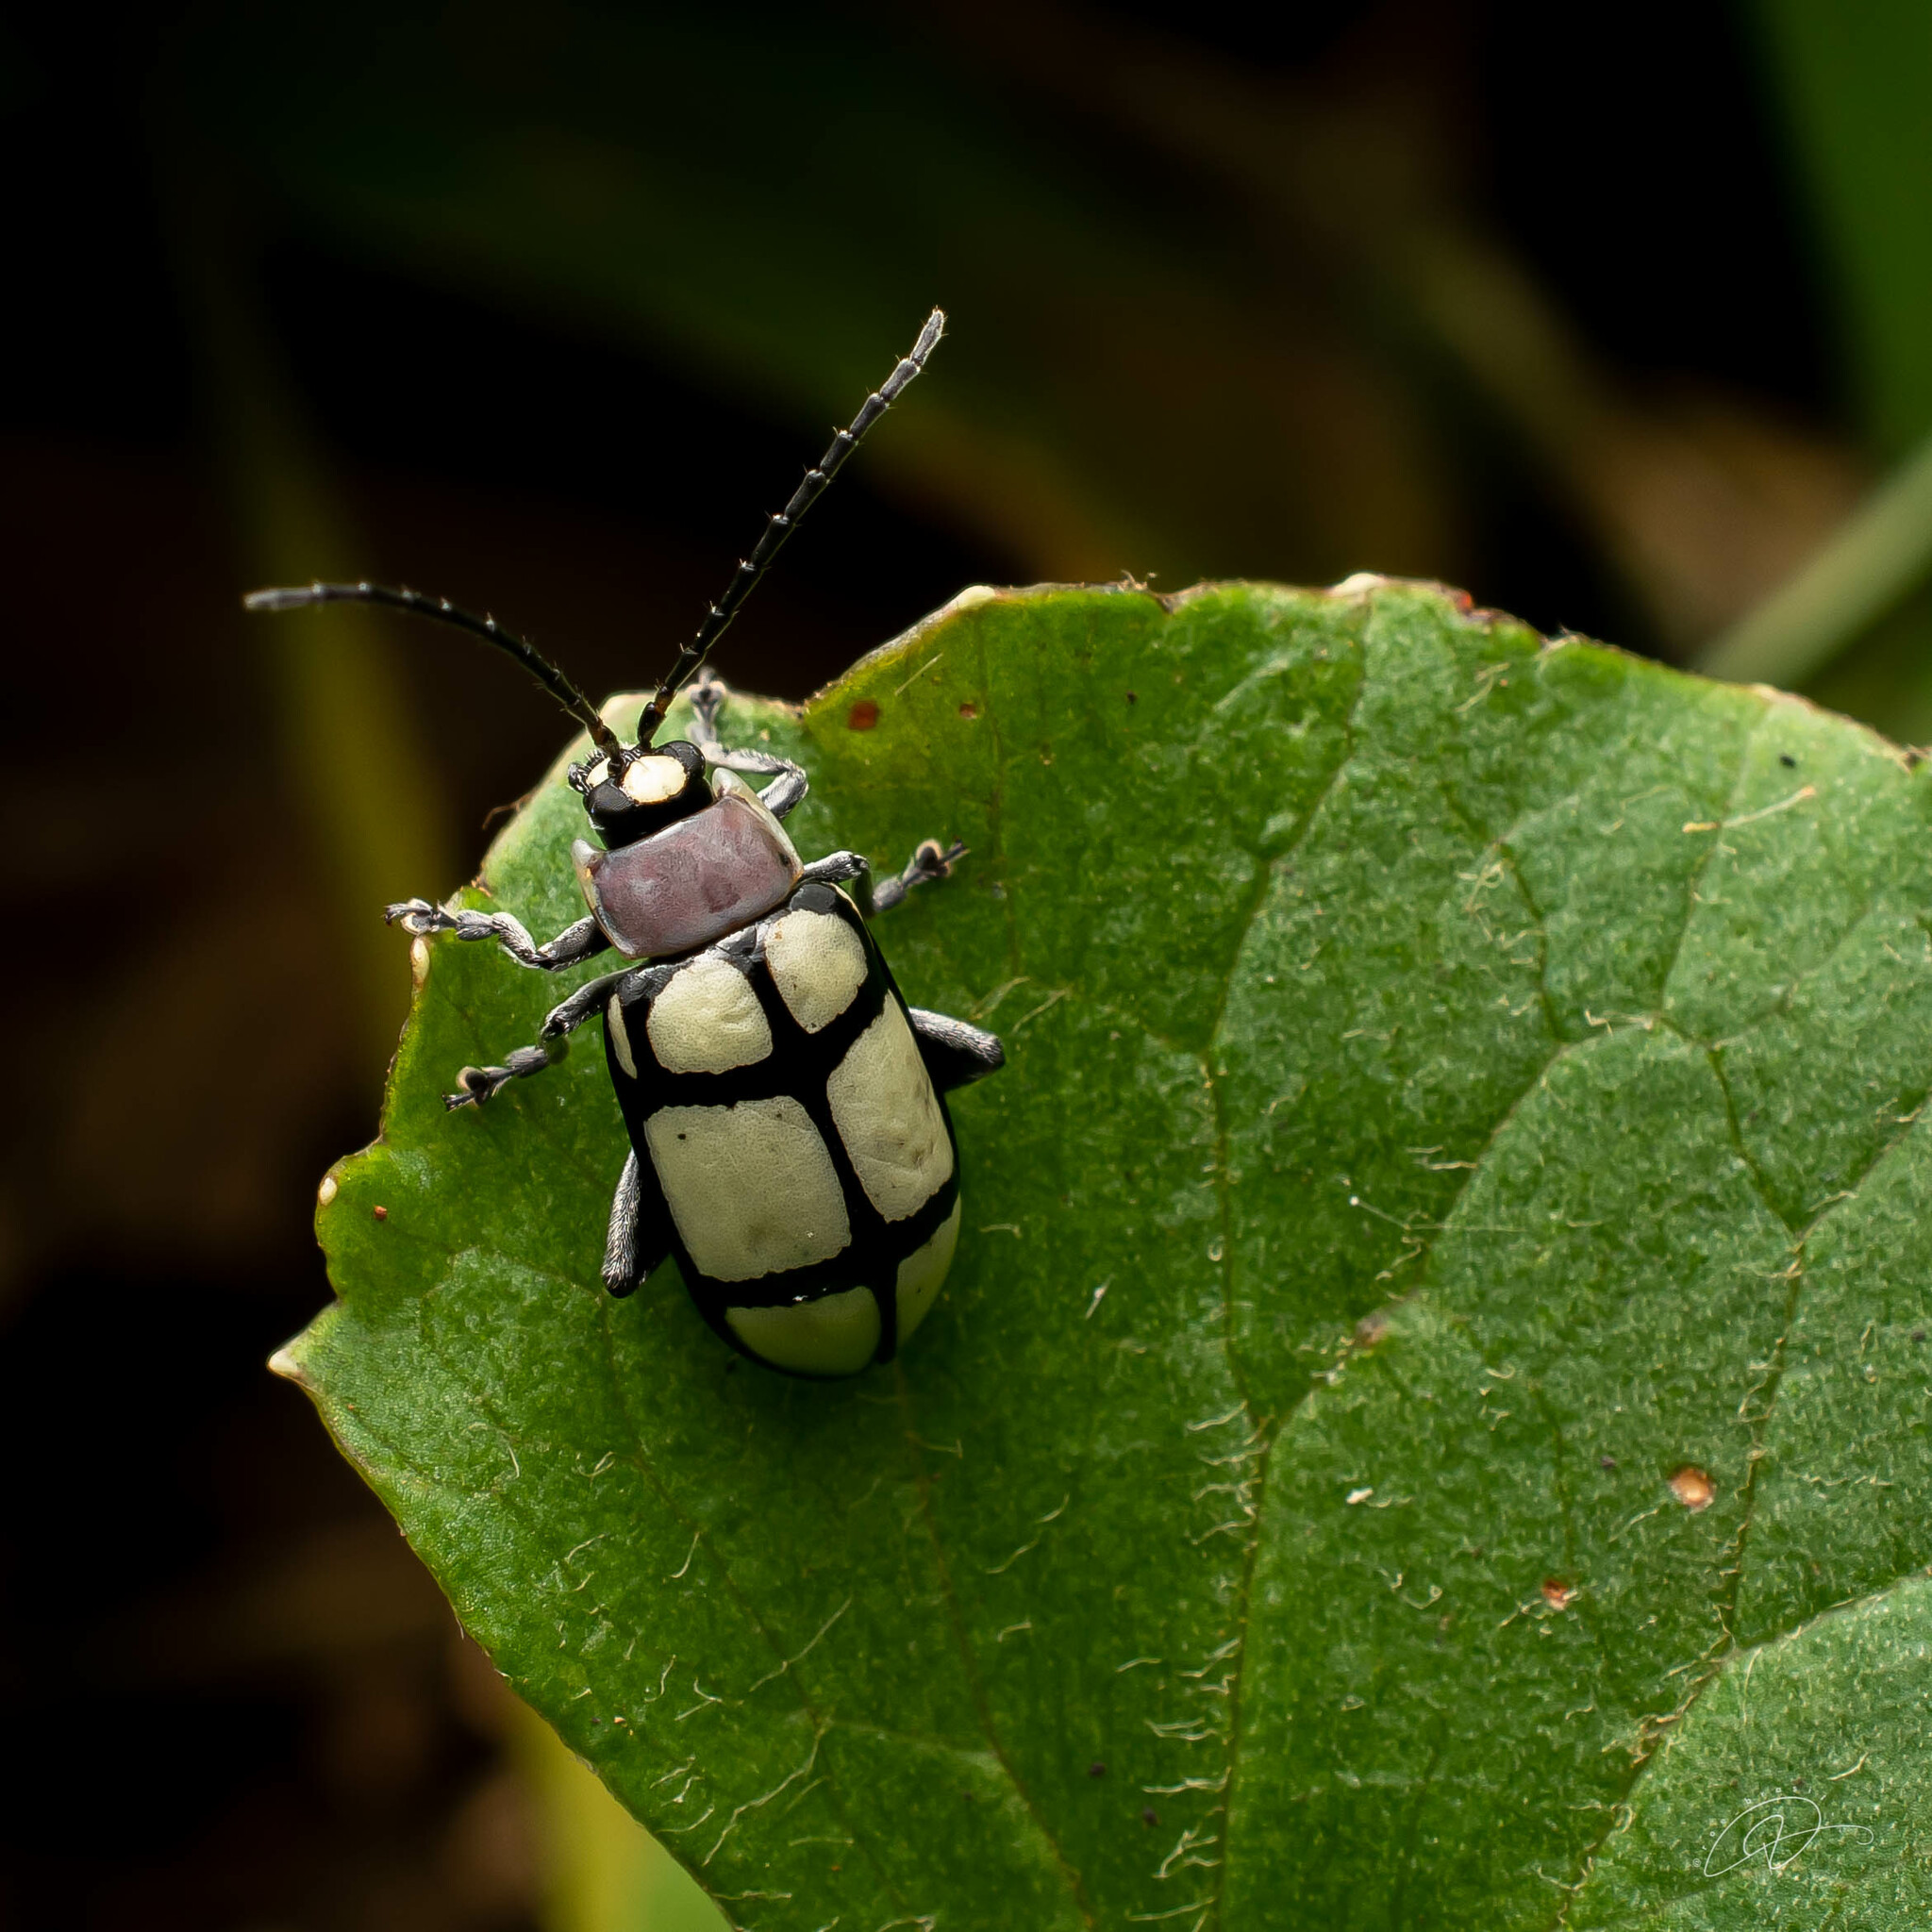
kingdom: Animalia
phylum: Arthropoda
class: Insecta
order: Coleoptera
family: Chrysomelidae
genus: Omophoita
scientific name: Omophoita
